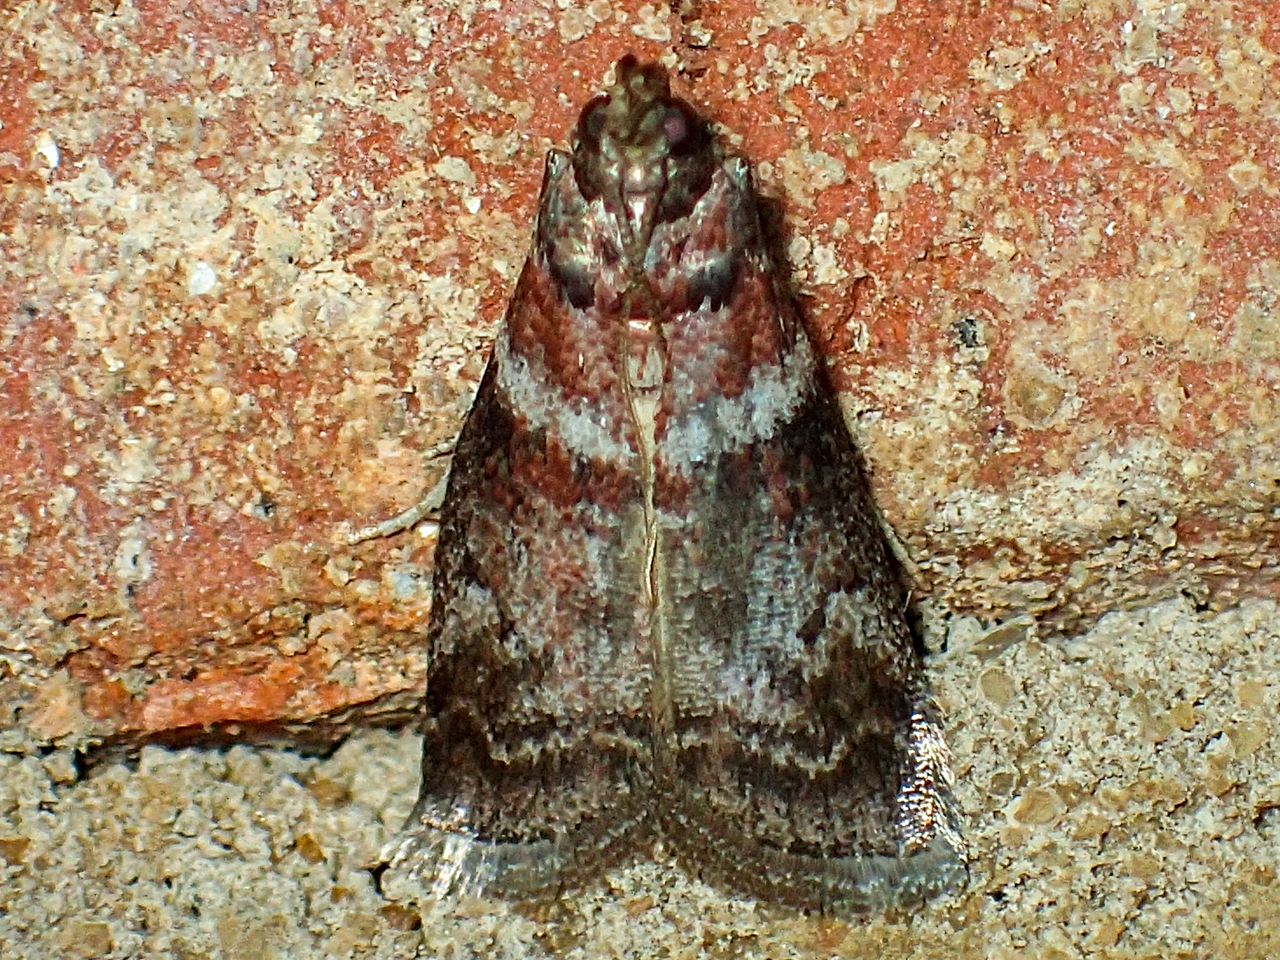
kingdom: Animalia
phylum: Arthropoda
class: Insecta
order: Lepidoptera
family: Pyralidae
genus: Sciota
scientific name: Sciota uvinella
